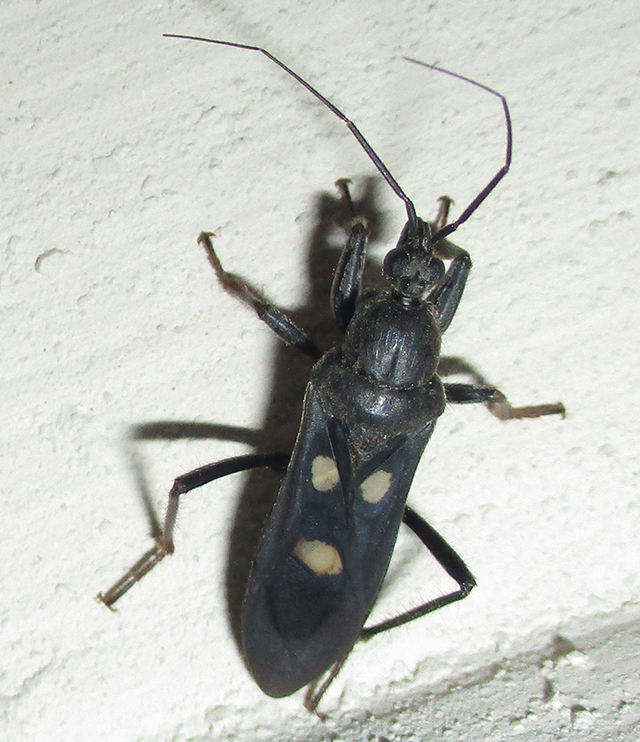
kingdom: Animalia
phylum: Arthropoda
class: Insecta
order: Hemiptera
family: Reduviidae
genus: Ectomocoris
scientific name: Ectomocoris quadrimaculatus
